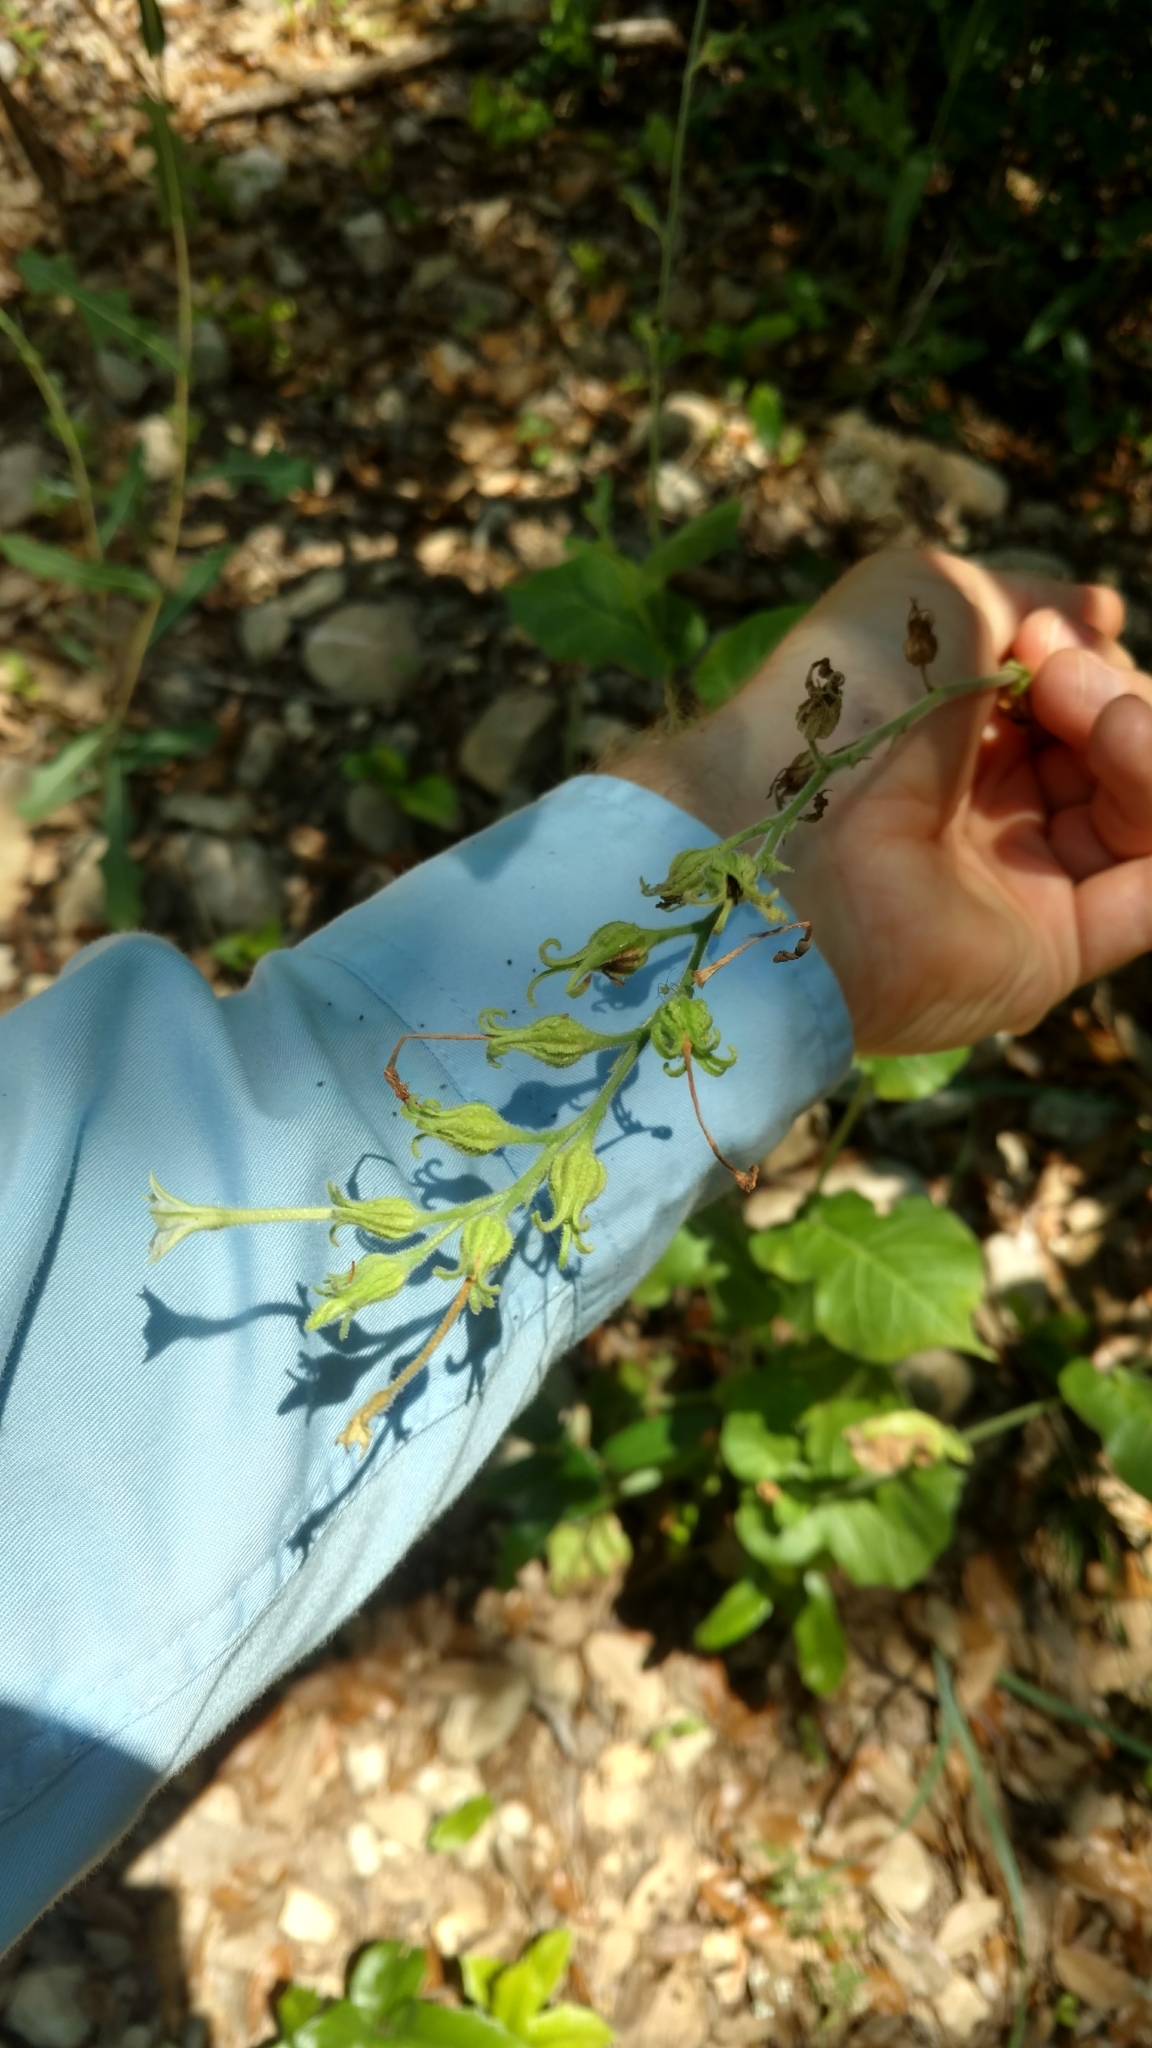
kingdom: Plantae
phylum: Tracheophyta
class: Magnoliopsida
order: Solanales
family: Solanaceae
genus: Nicotiana
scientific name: Nicotiana repanda
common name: Fiddle-leaf tobacco
